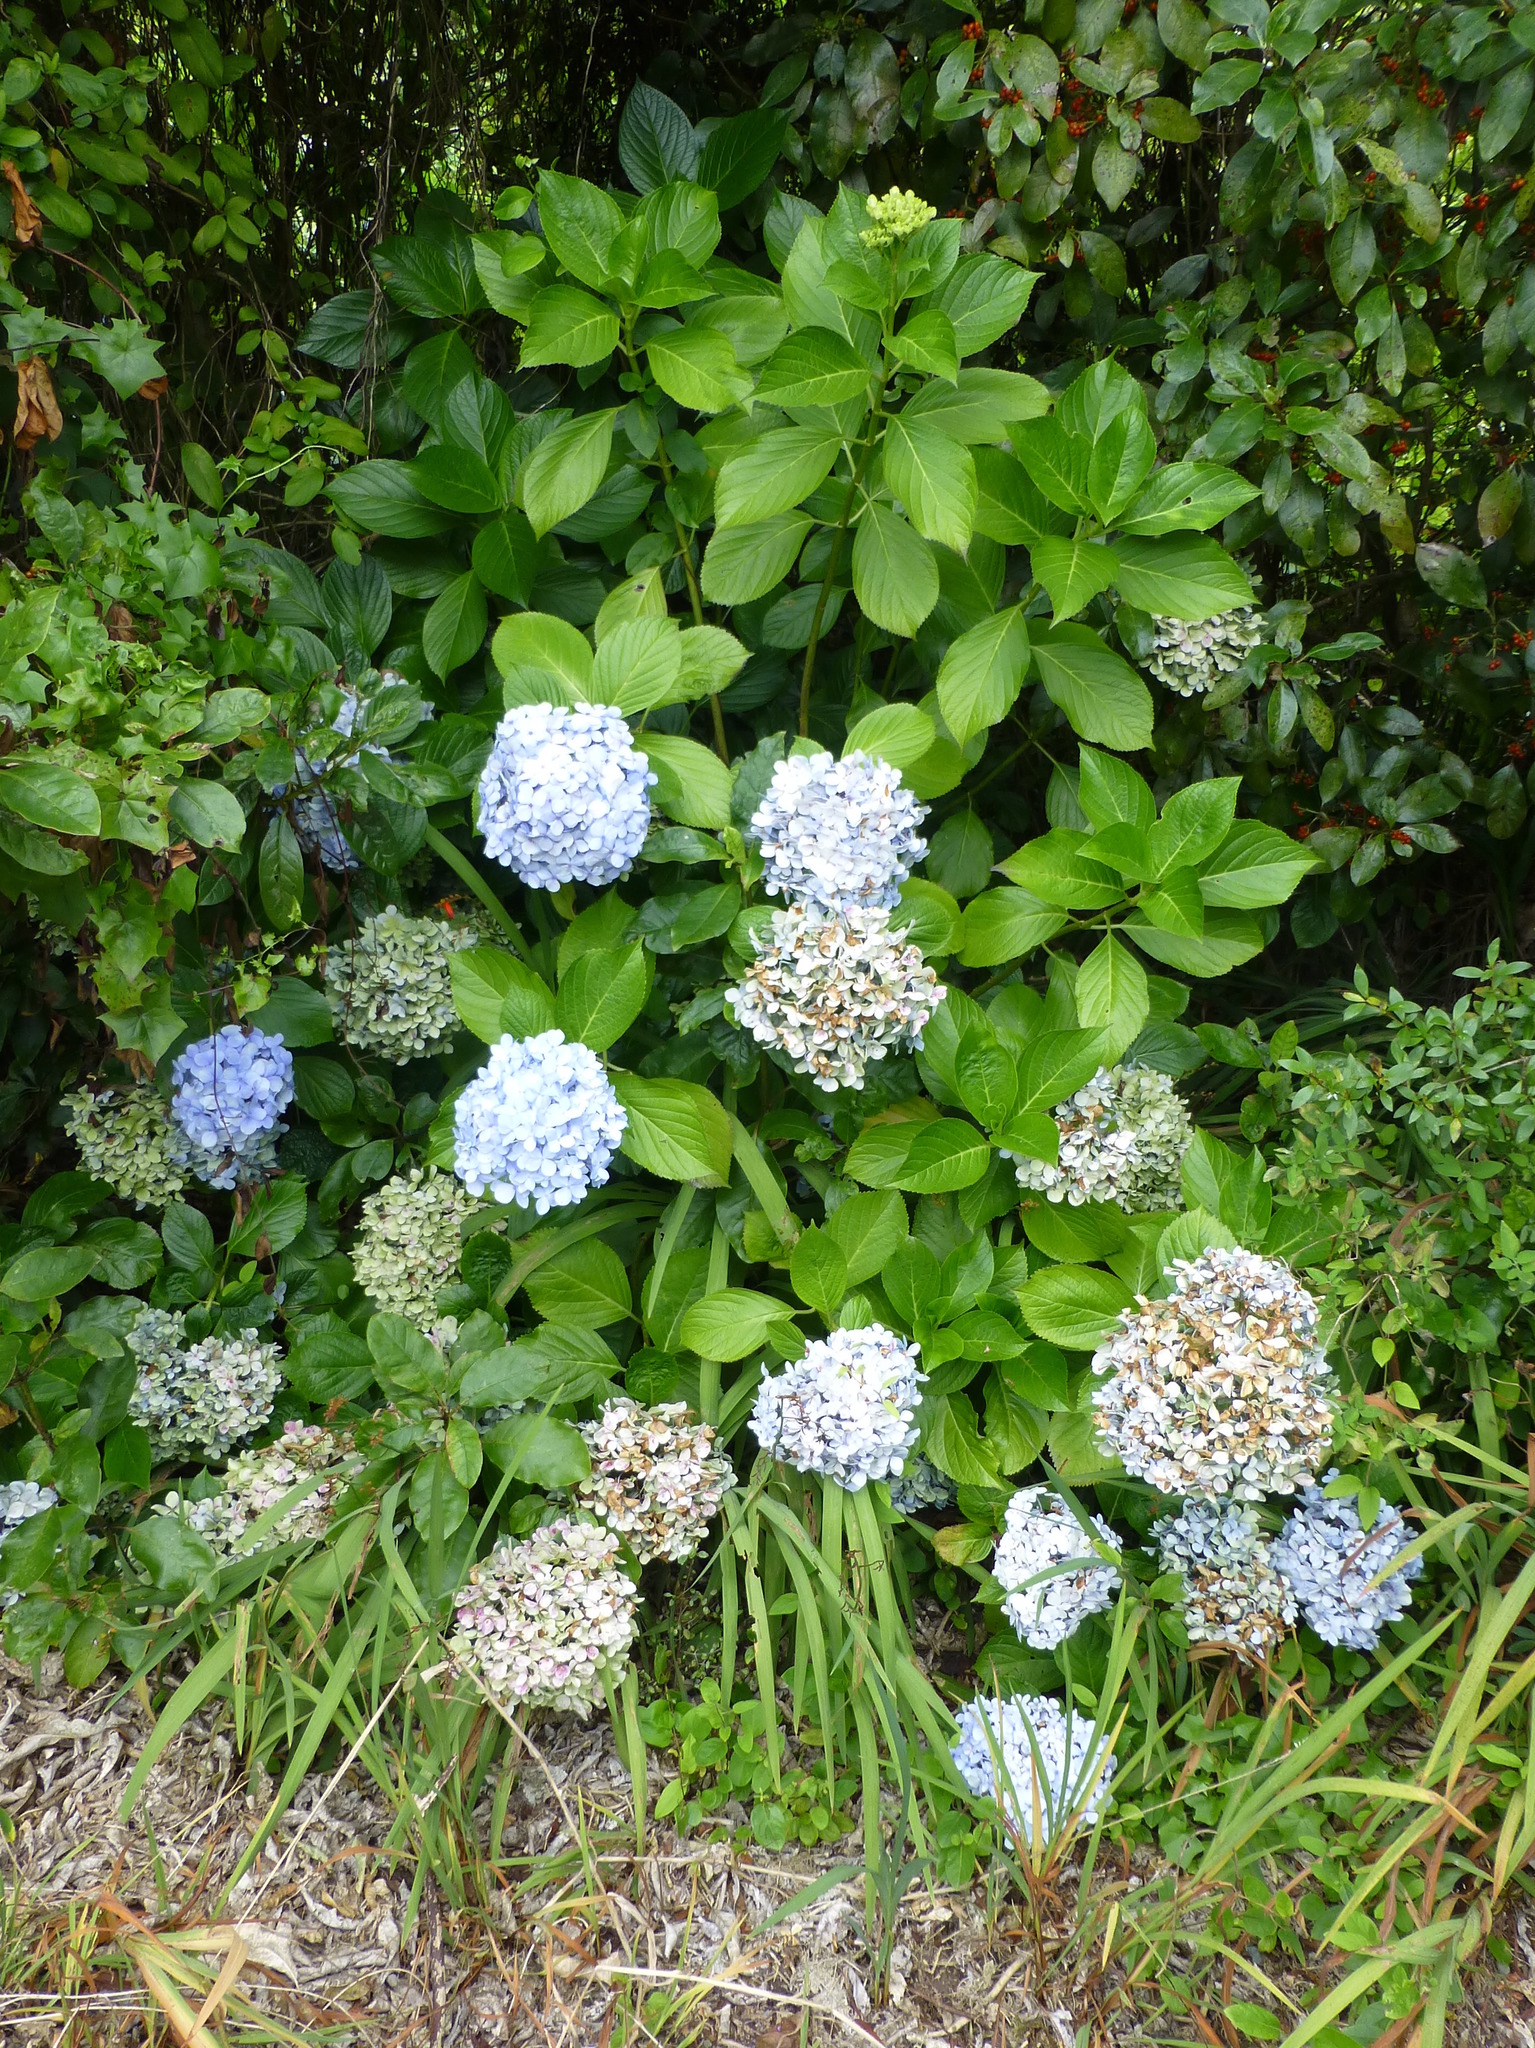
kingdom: Plantae
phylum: Tracheophyta
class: Magnoliopsida
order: Cornales
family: Hydrangeaceae
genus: Hydrangea
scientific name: Hydrangea macrophylla
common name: Hydrangea
